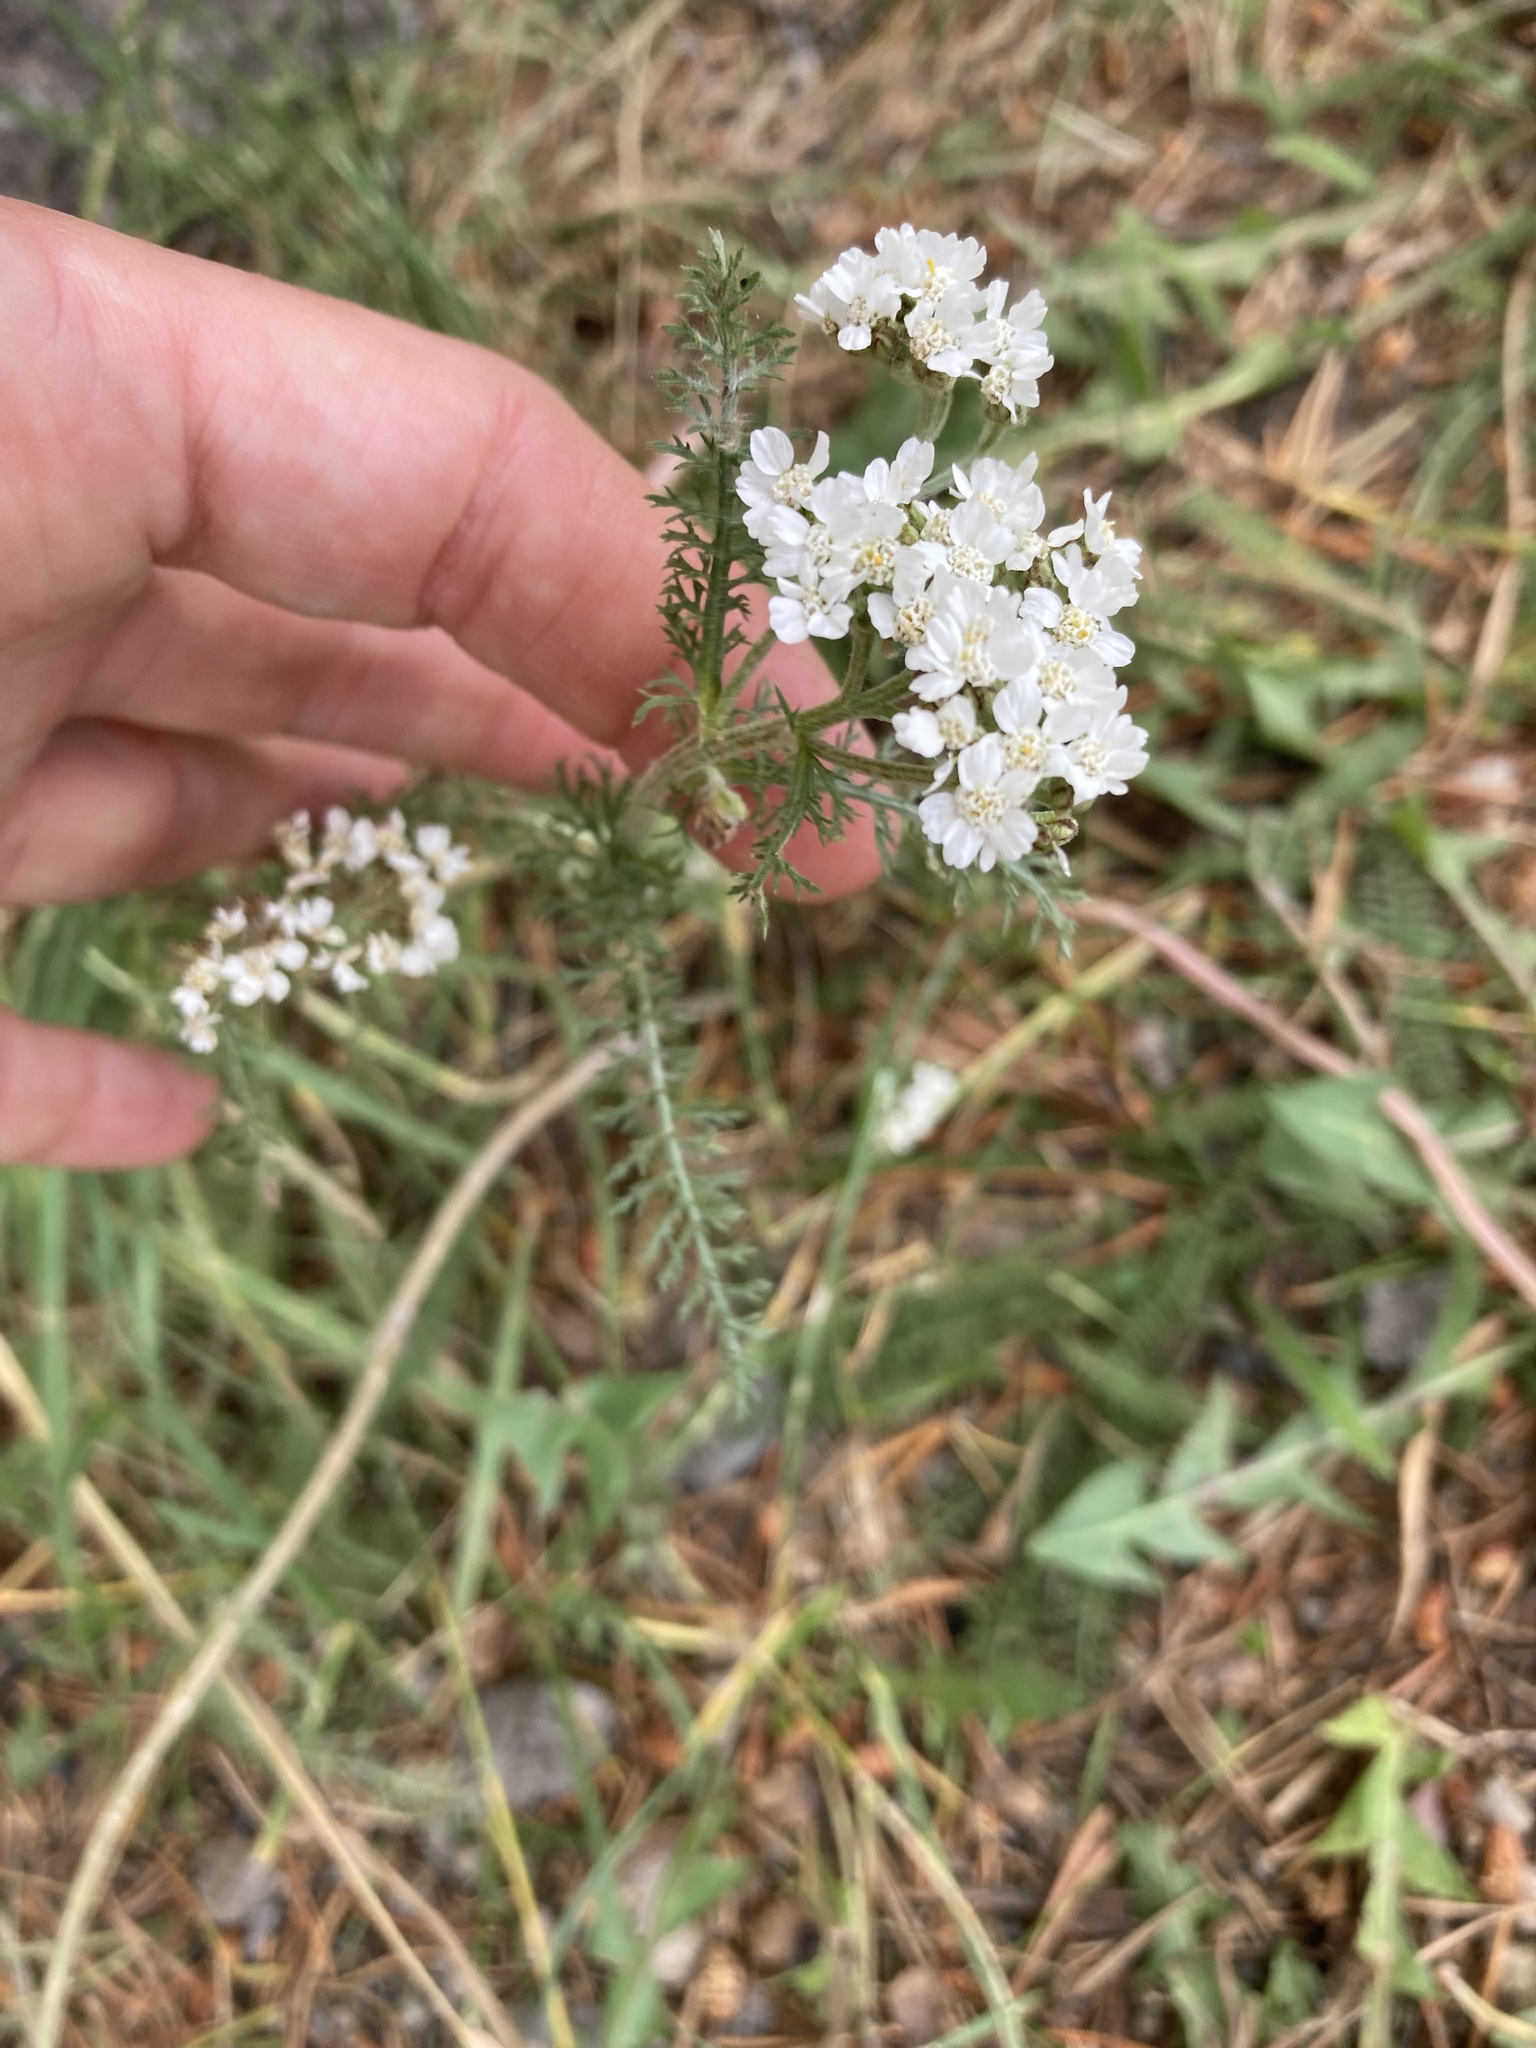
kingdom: Plantae
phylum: Tracheophyta
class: Magnoliopsida
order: Asterales
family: Asteraceae
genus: Achillea
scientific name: Achillea millefolium
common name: Yarrow
